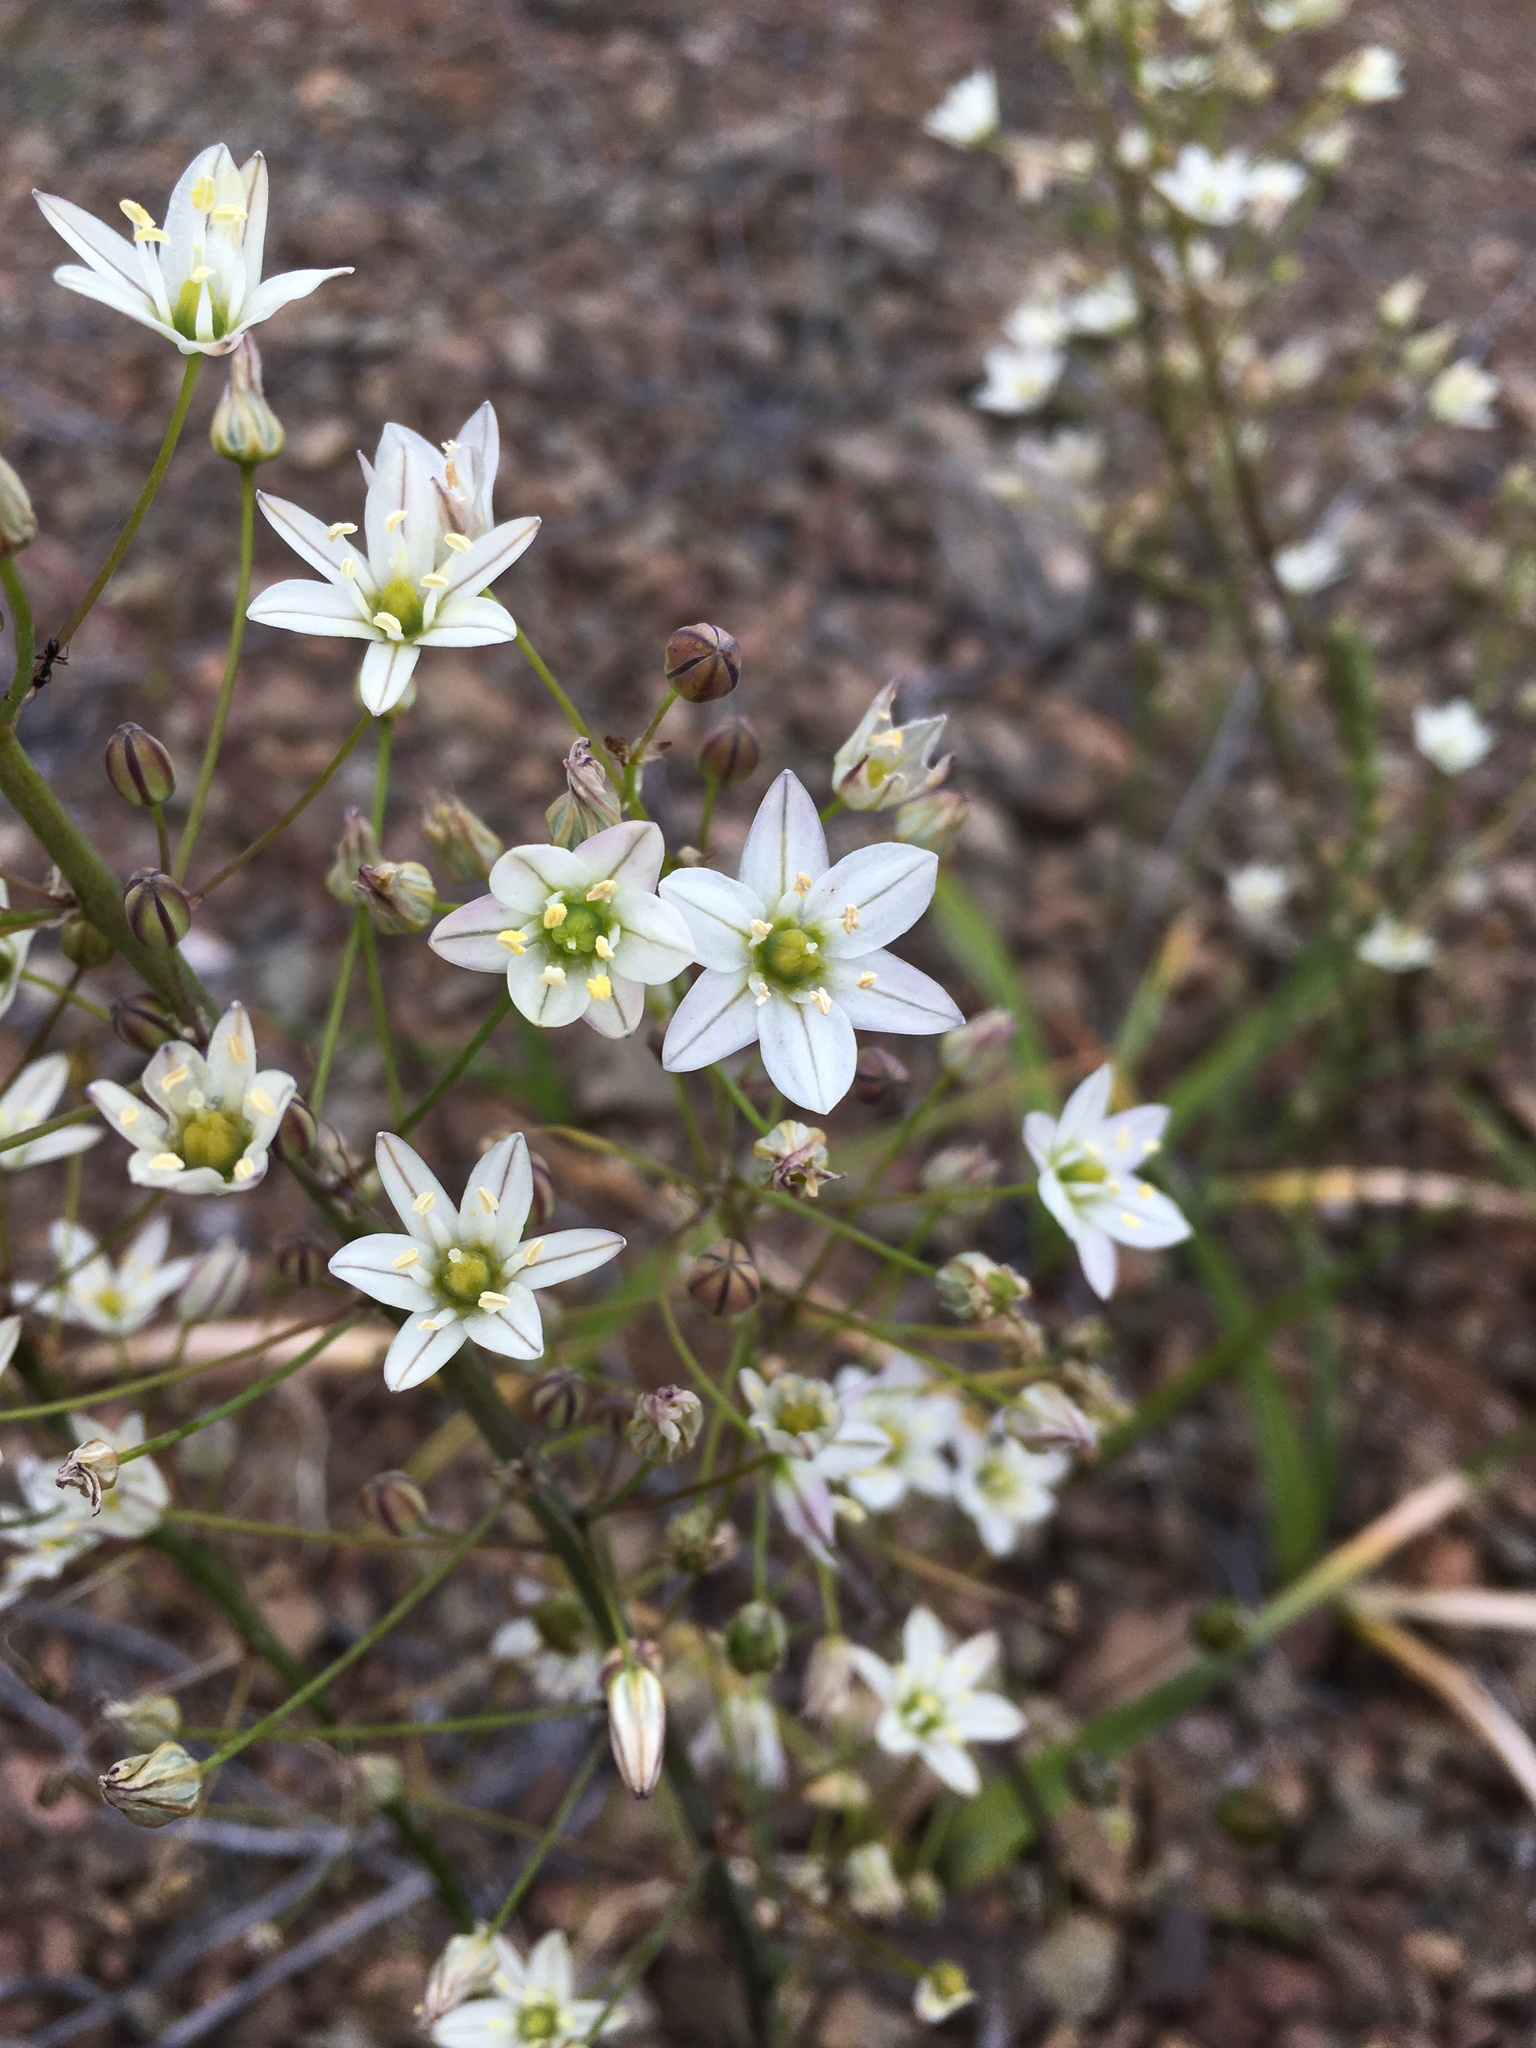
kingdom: Plantae
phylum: Tracheophyta
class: Liliopsida
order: Asparagales
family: Asparagaceae
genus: Oziroe
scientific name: Oziroe biflora
